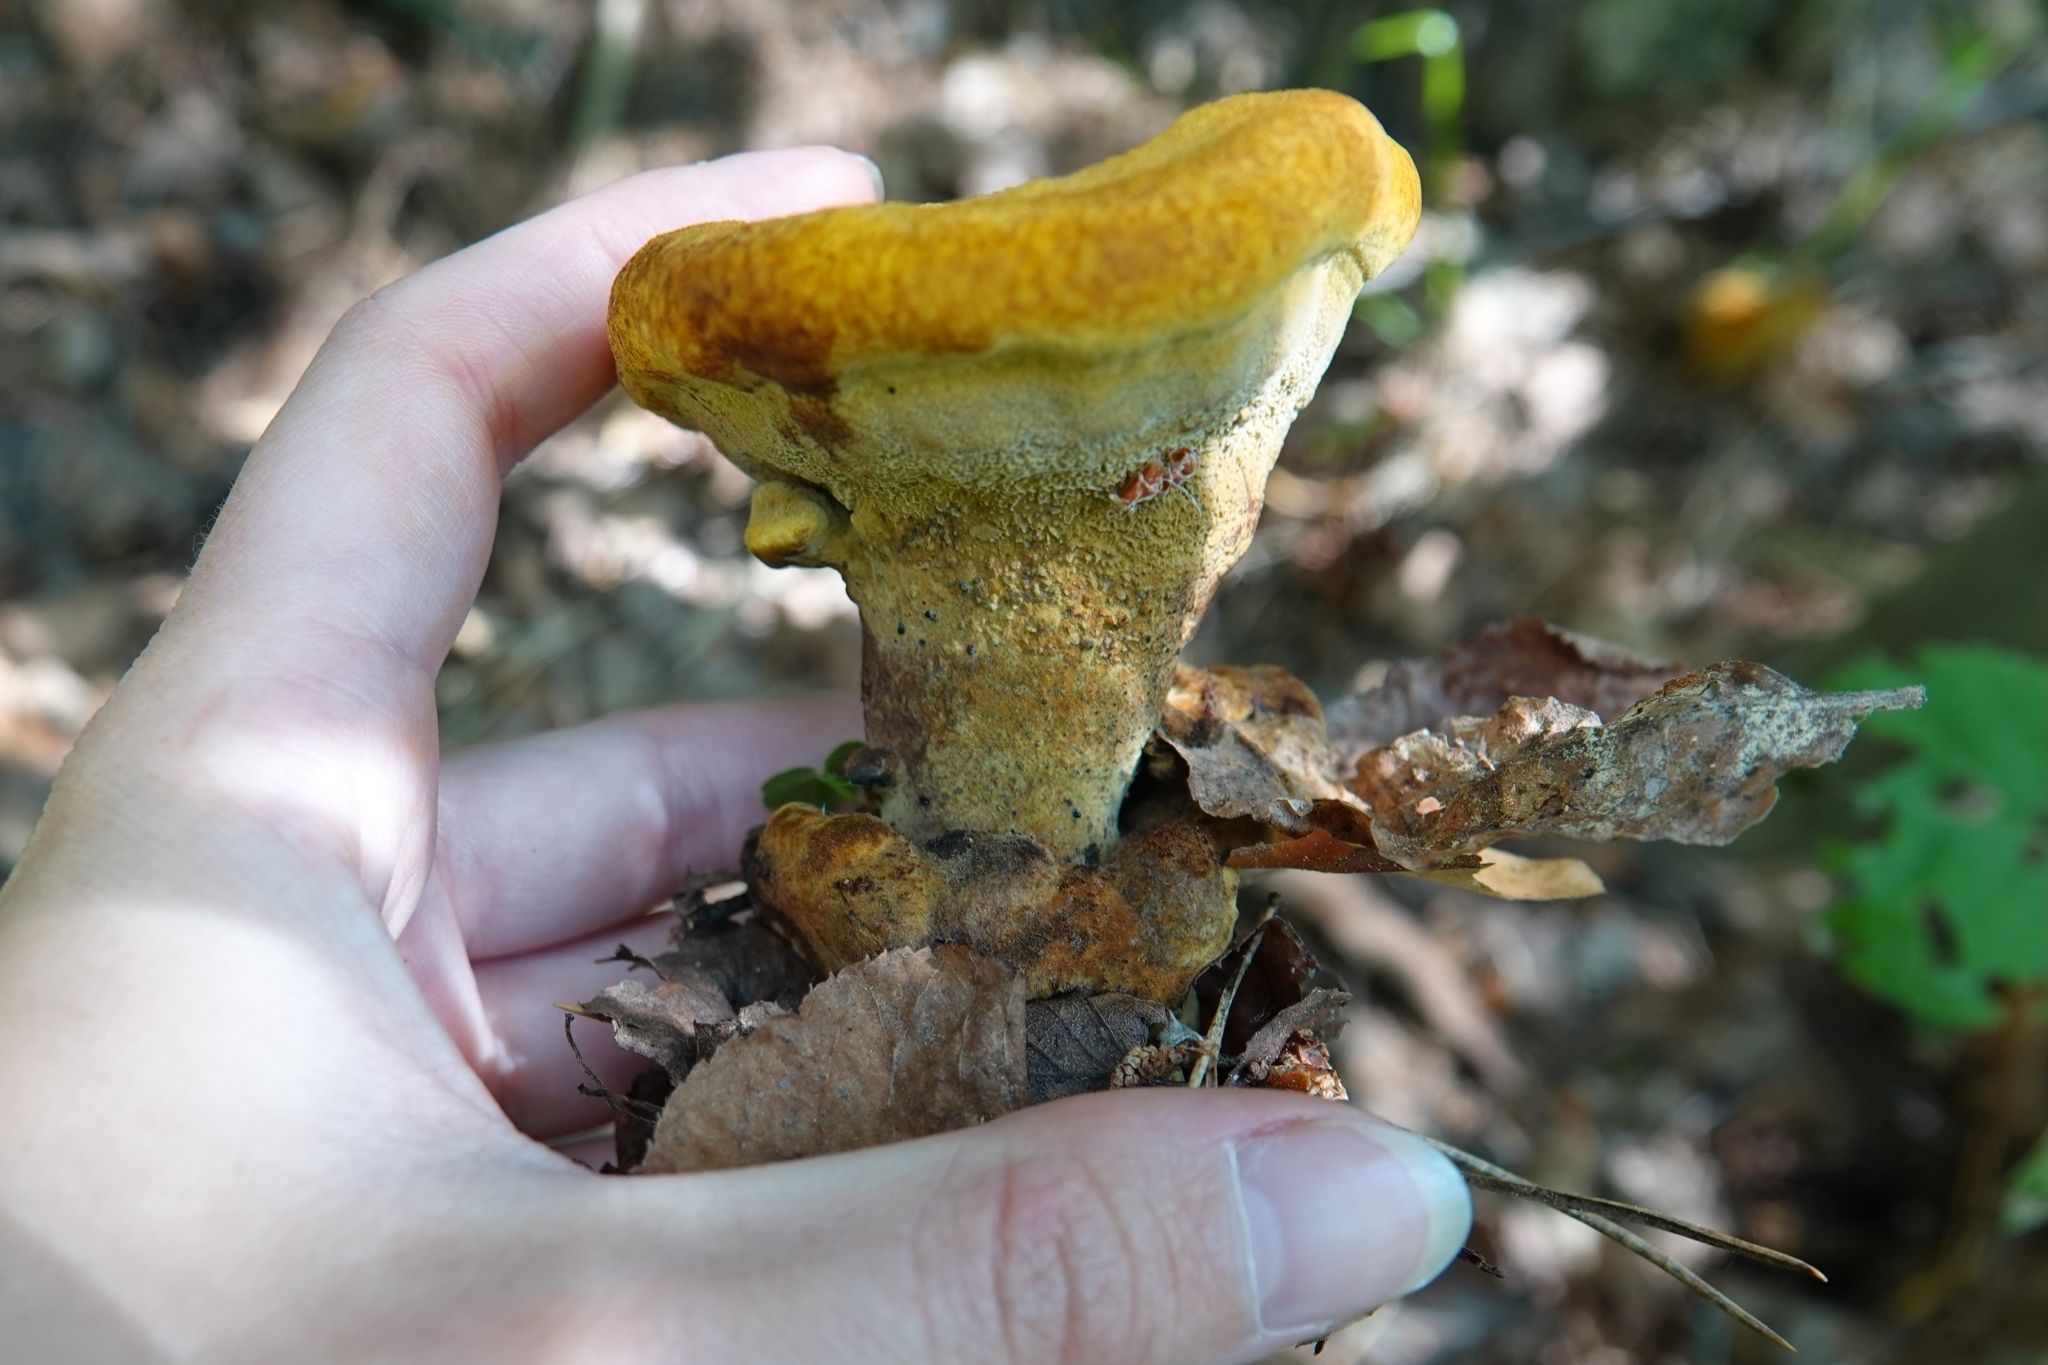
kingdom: Fungi
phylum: Basidiomycota
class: Agaricomycetes
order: Polyporales
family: Laetiporaceae
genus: Phaeolus
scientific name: Phaeolus schweinitzii
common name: Dyer's mazegill
